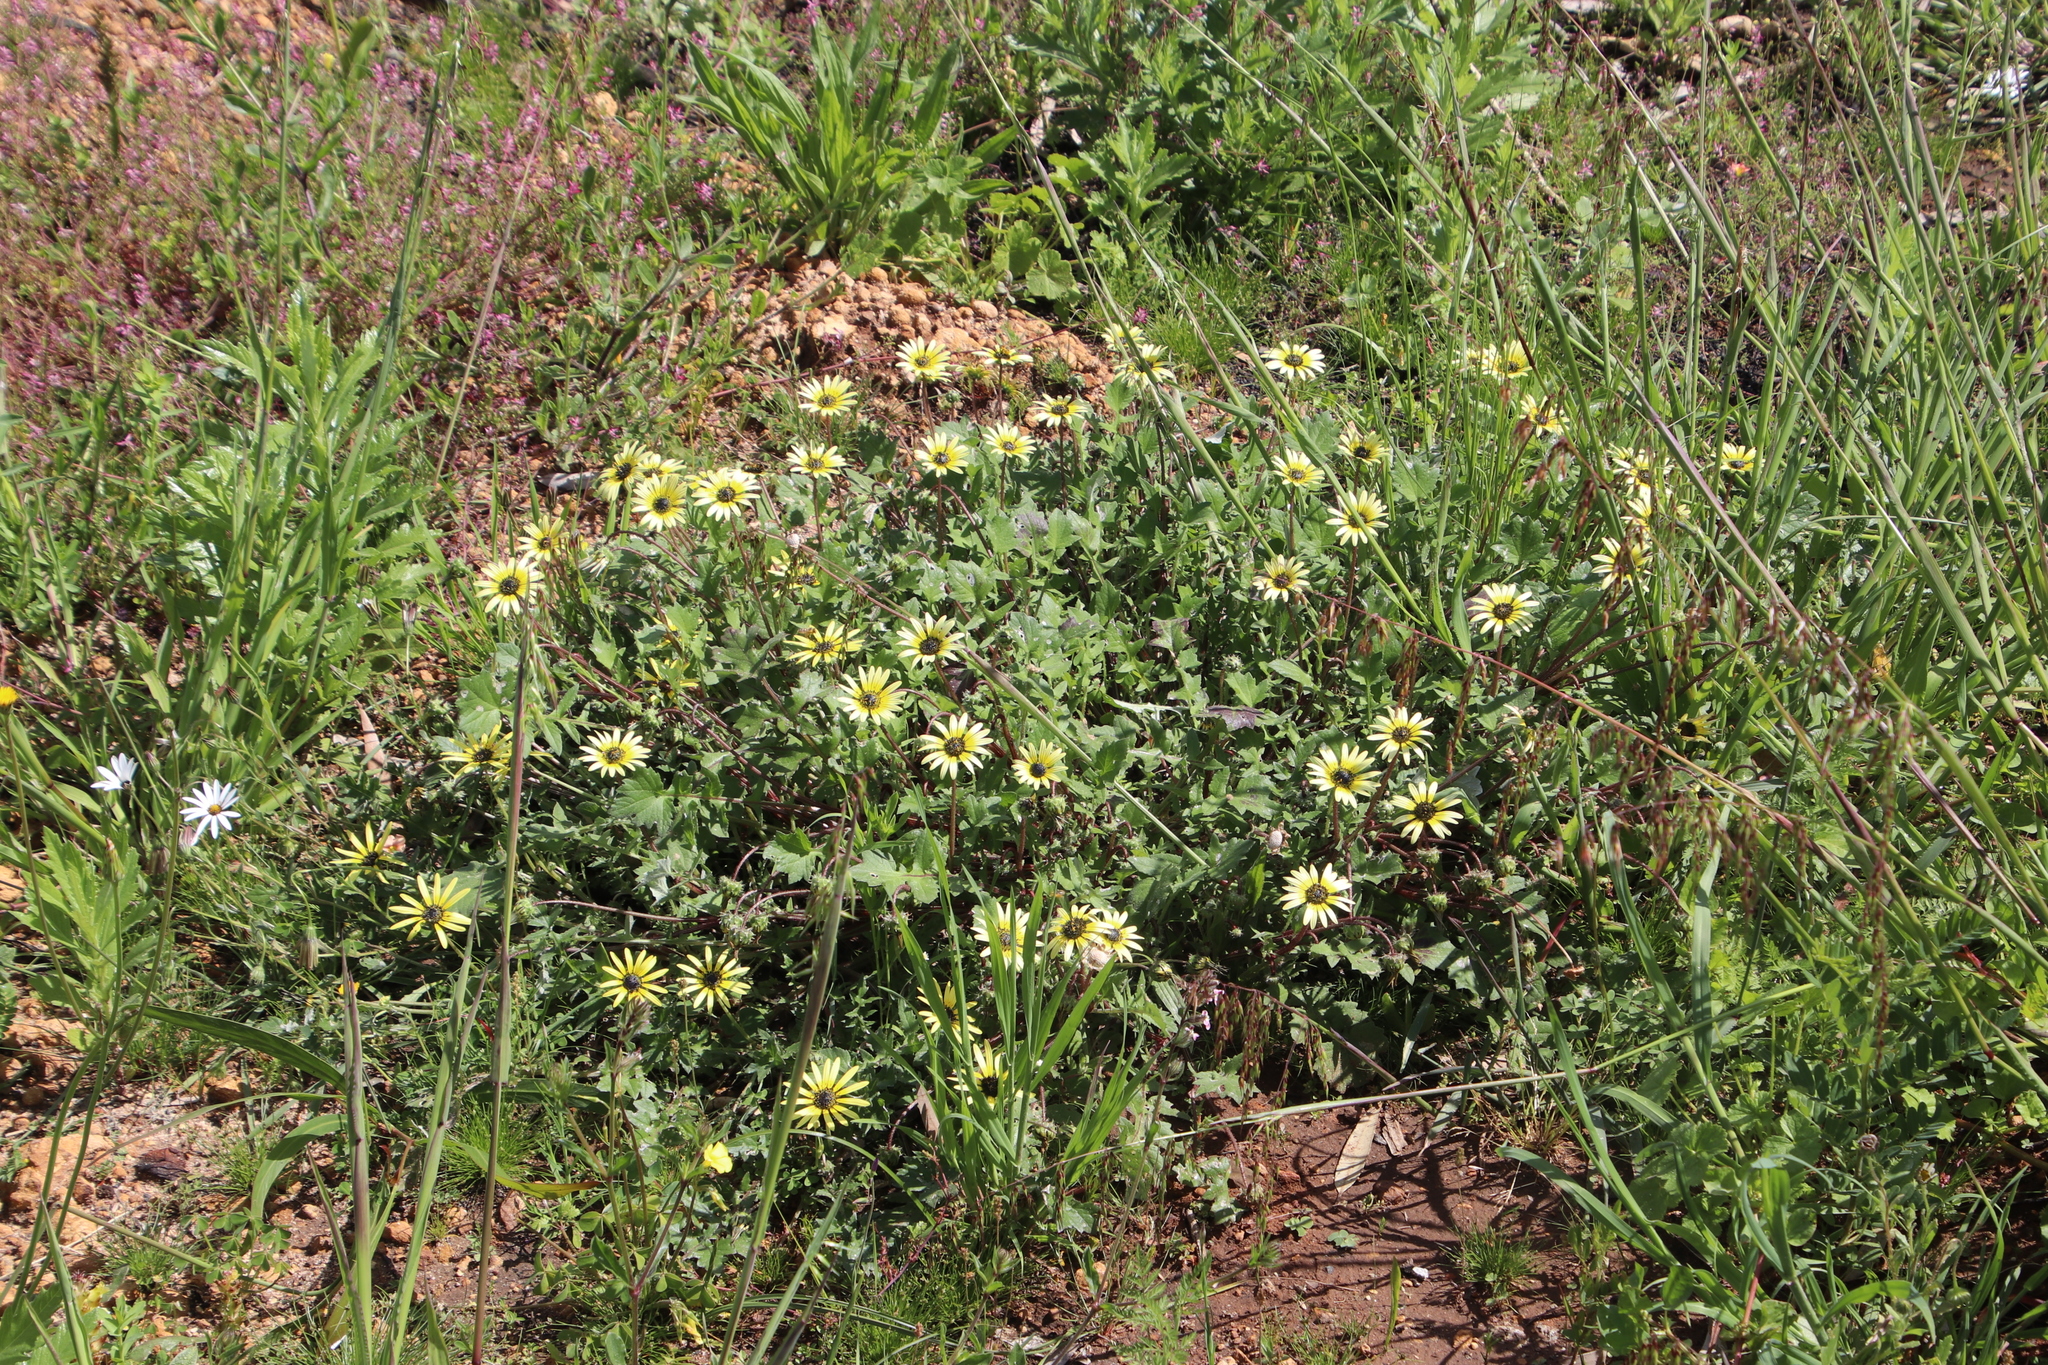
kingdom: Plantae
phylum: Tracheophyta
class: Magnoliopsida
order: Asterales
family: Asteraceae
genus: Arctotheca
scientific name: Arctotheca calendula
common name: Capeweed
